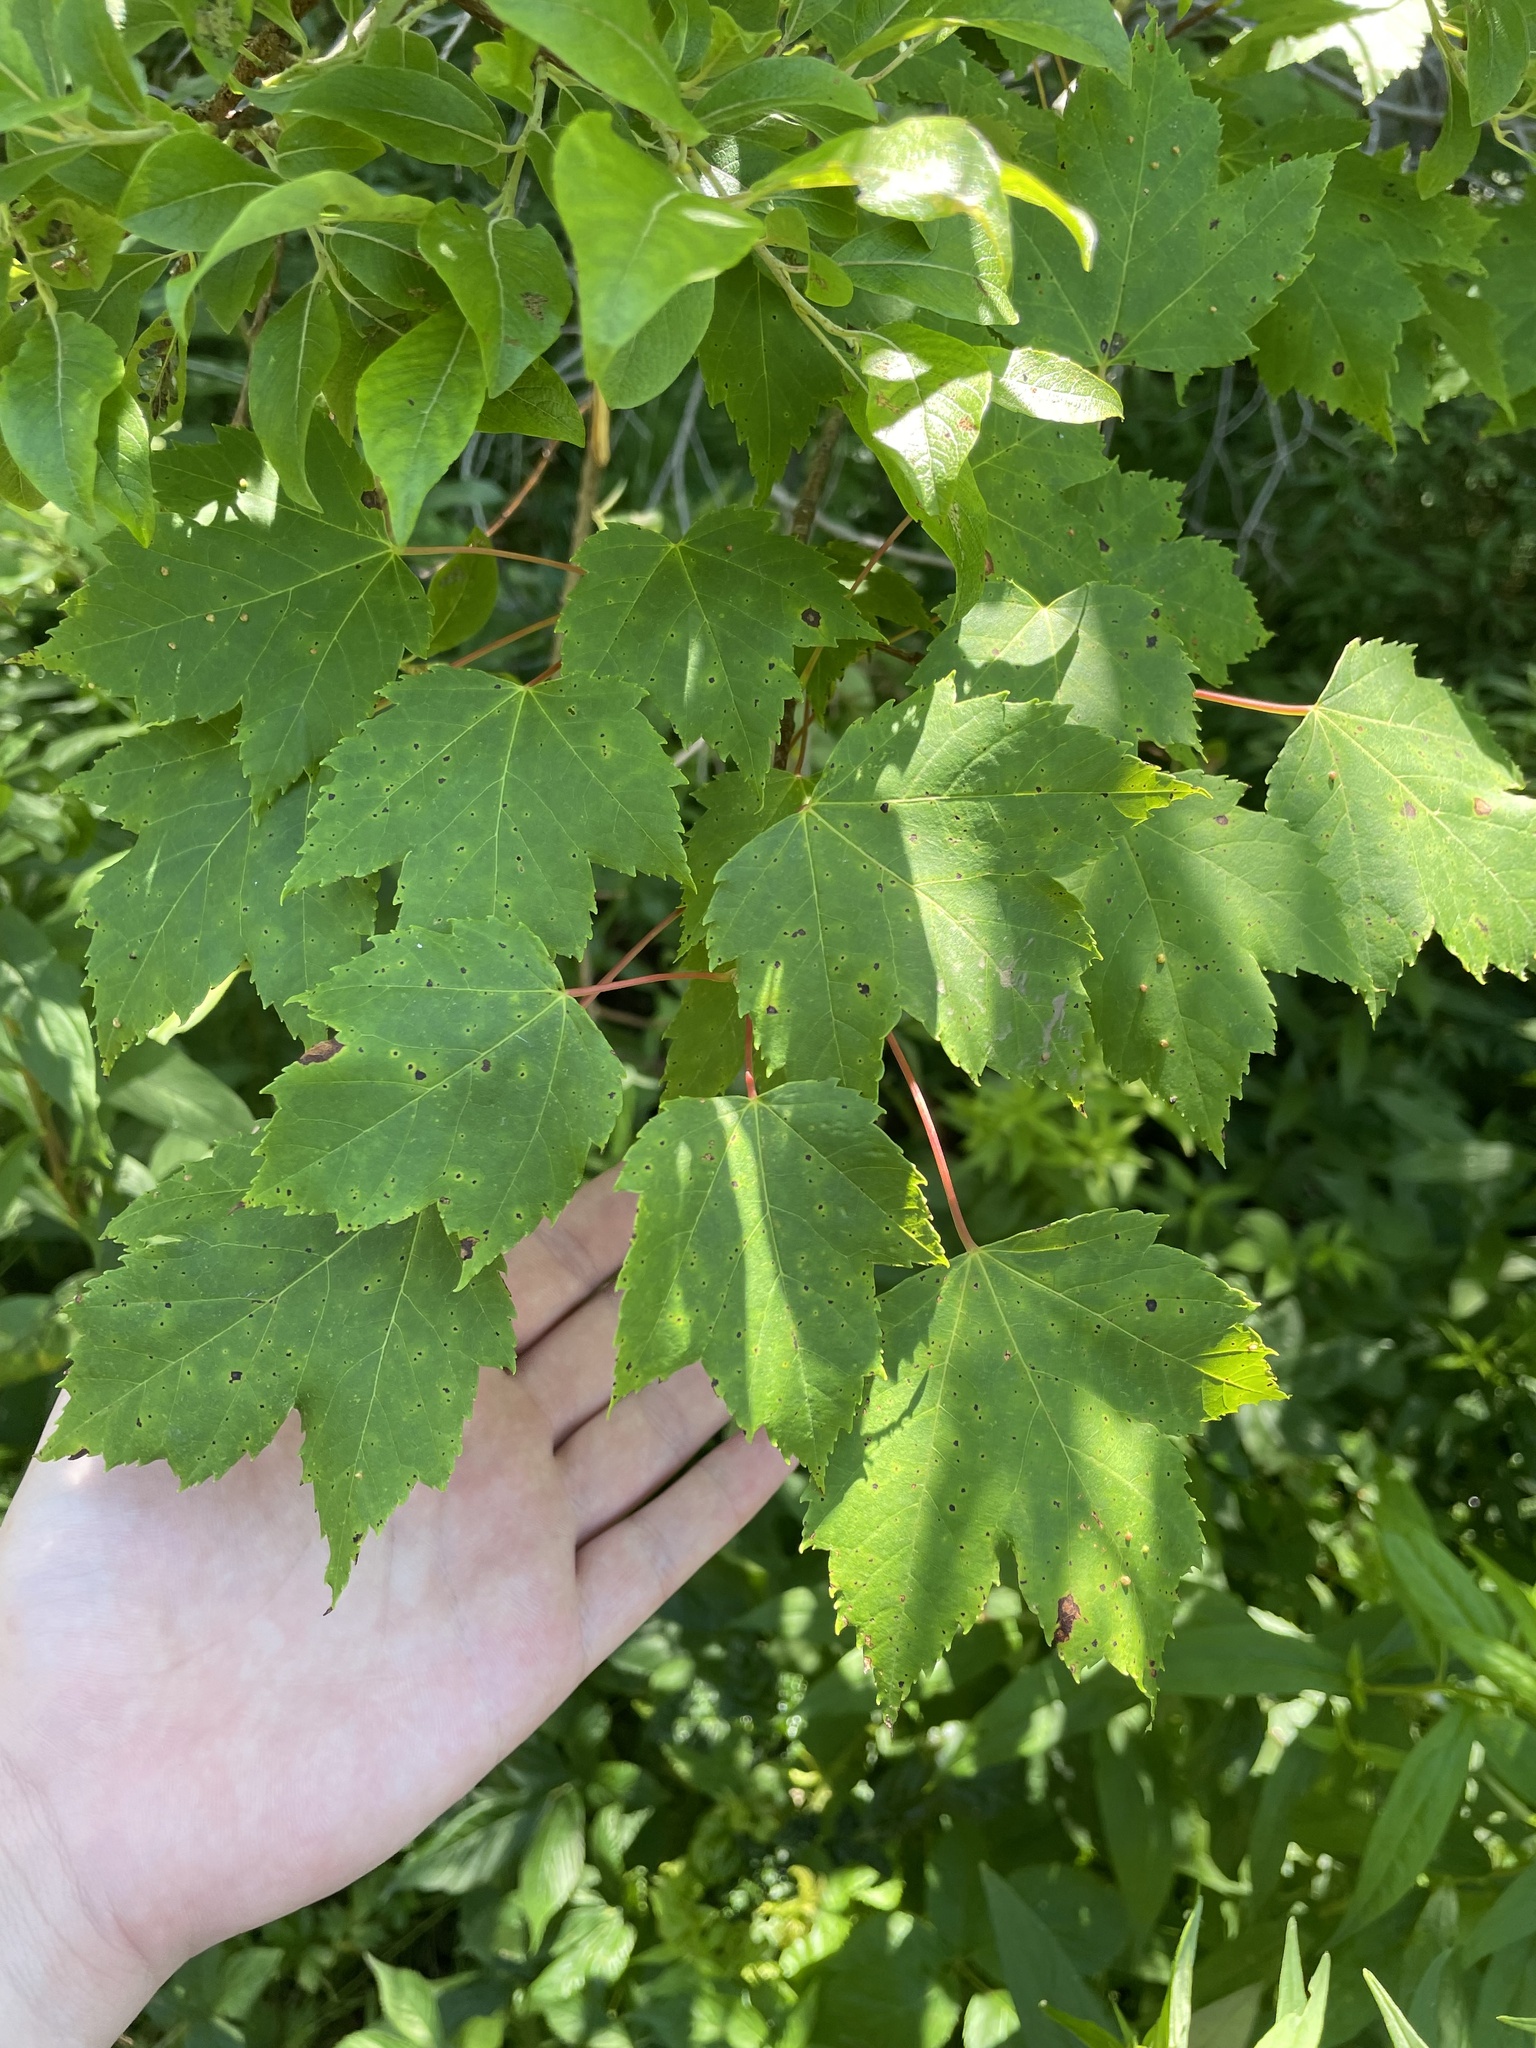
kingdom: Plantae
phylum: Tracheophyta
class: Magnoliopsida
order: Sapindales
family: Sapindaceae
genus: Acer
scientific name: Acer rubrum
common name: Red maple
